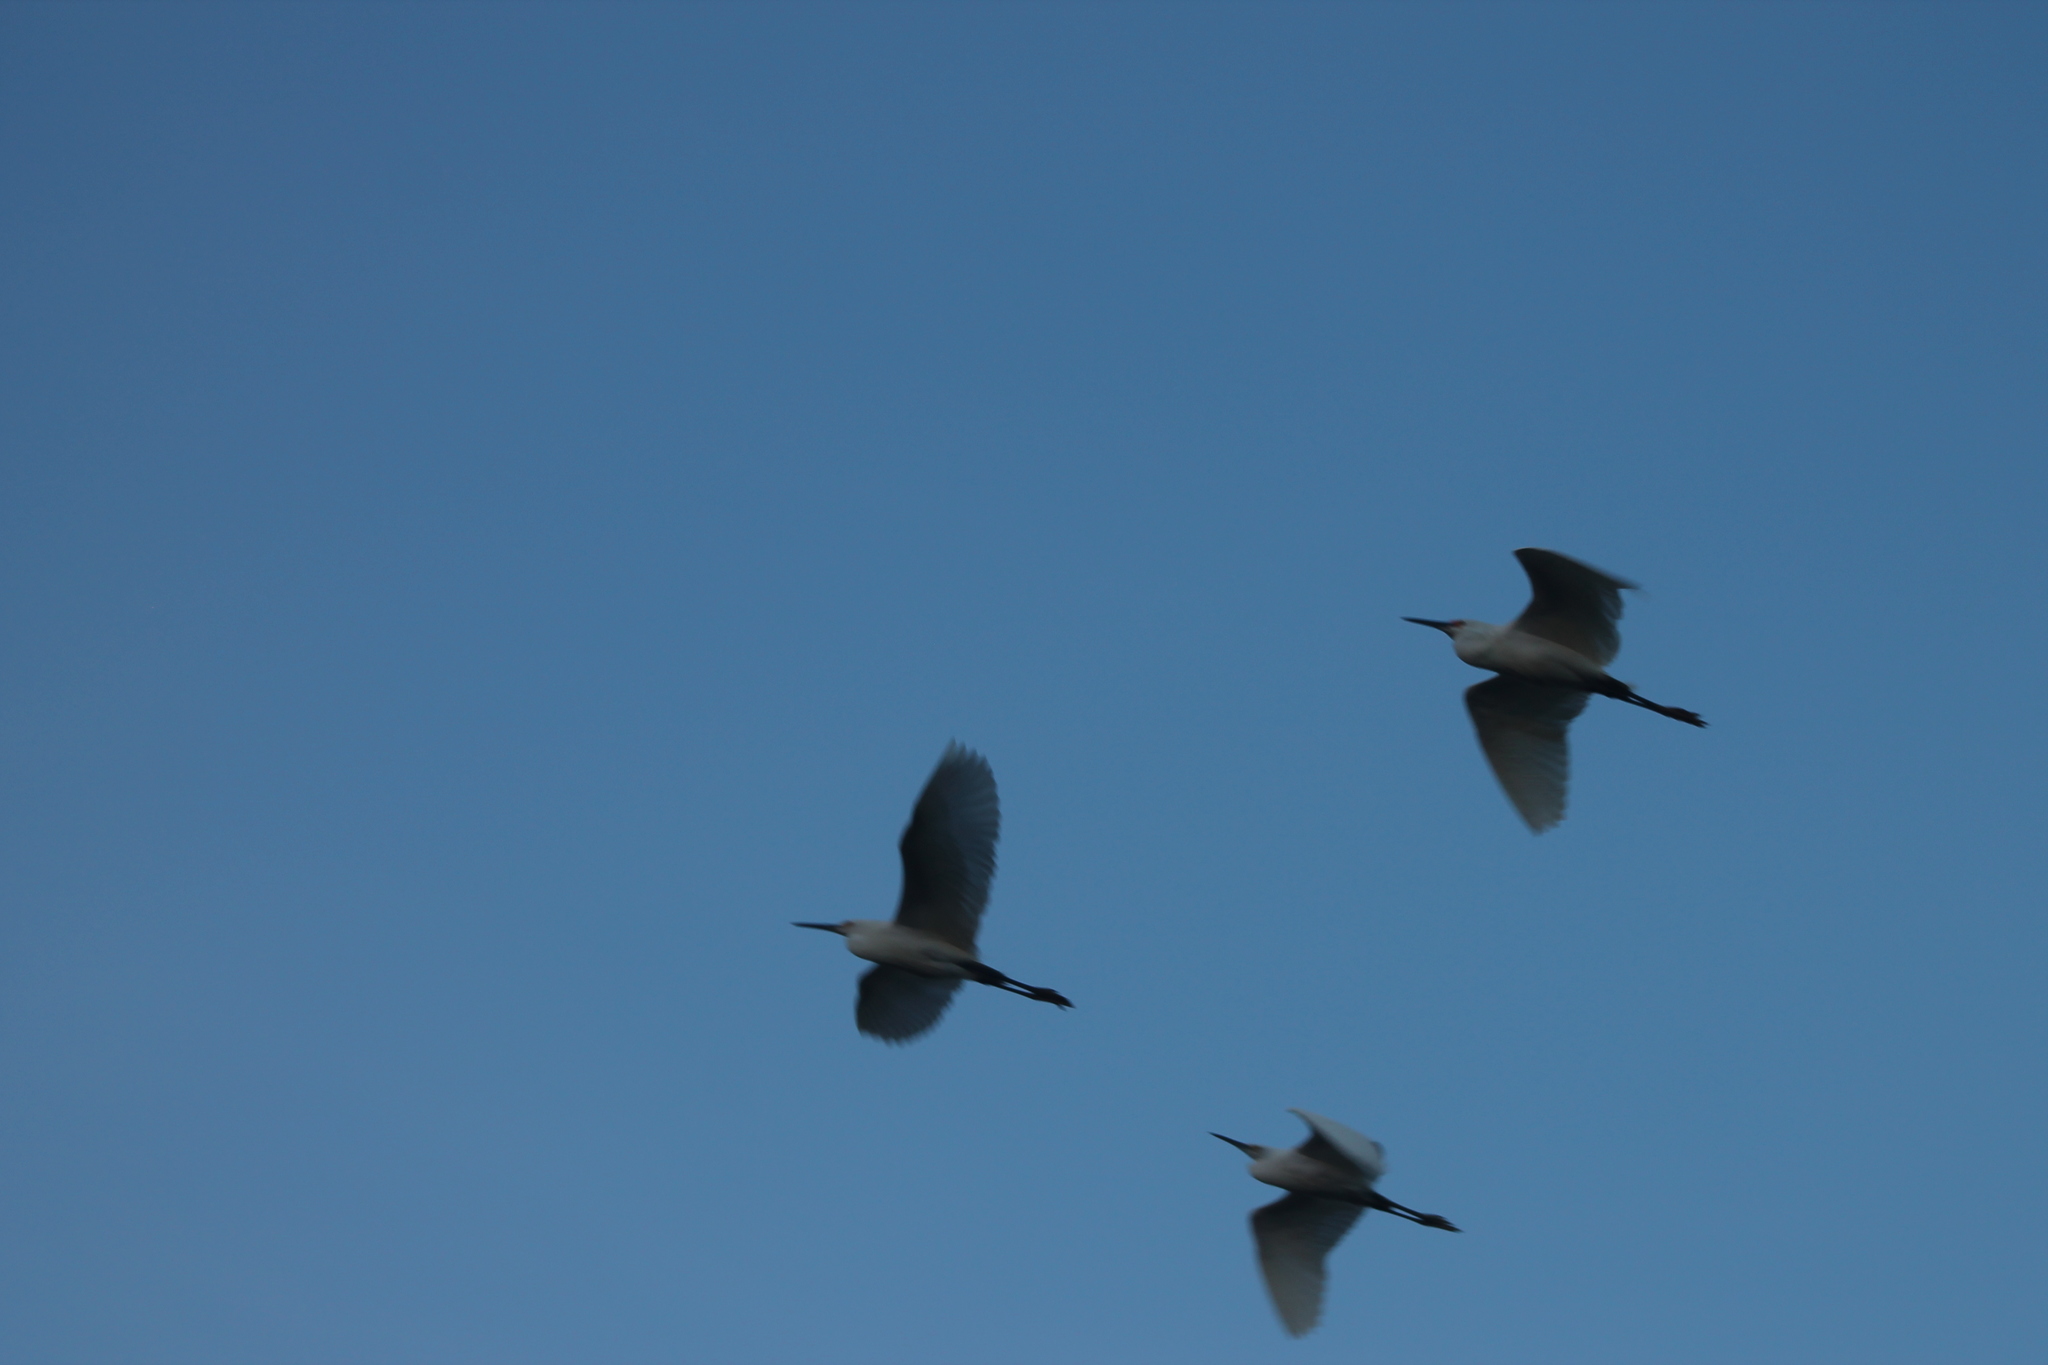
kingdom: Animalia
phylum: Chordata
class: Aves
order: Pelecaniformes
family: Ardeidae
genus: Egretta
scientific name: Egretta thula
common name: Snowy egret
